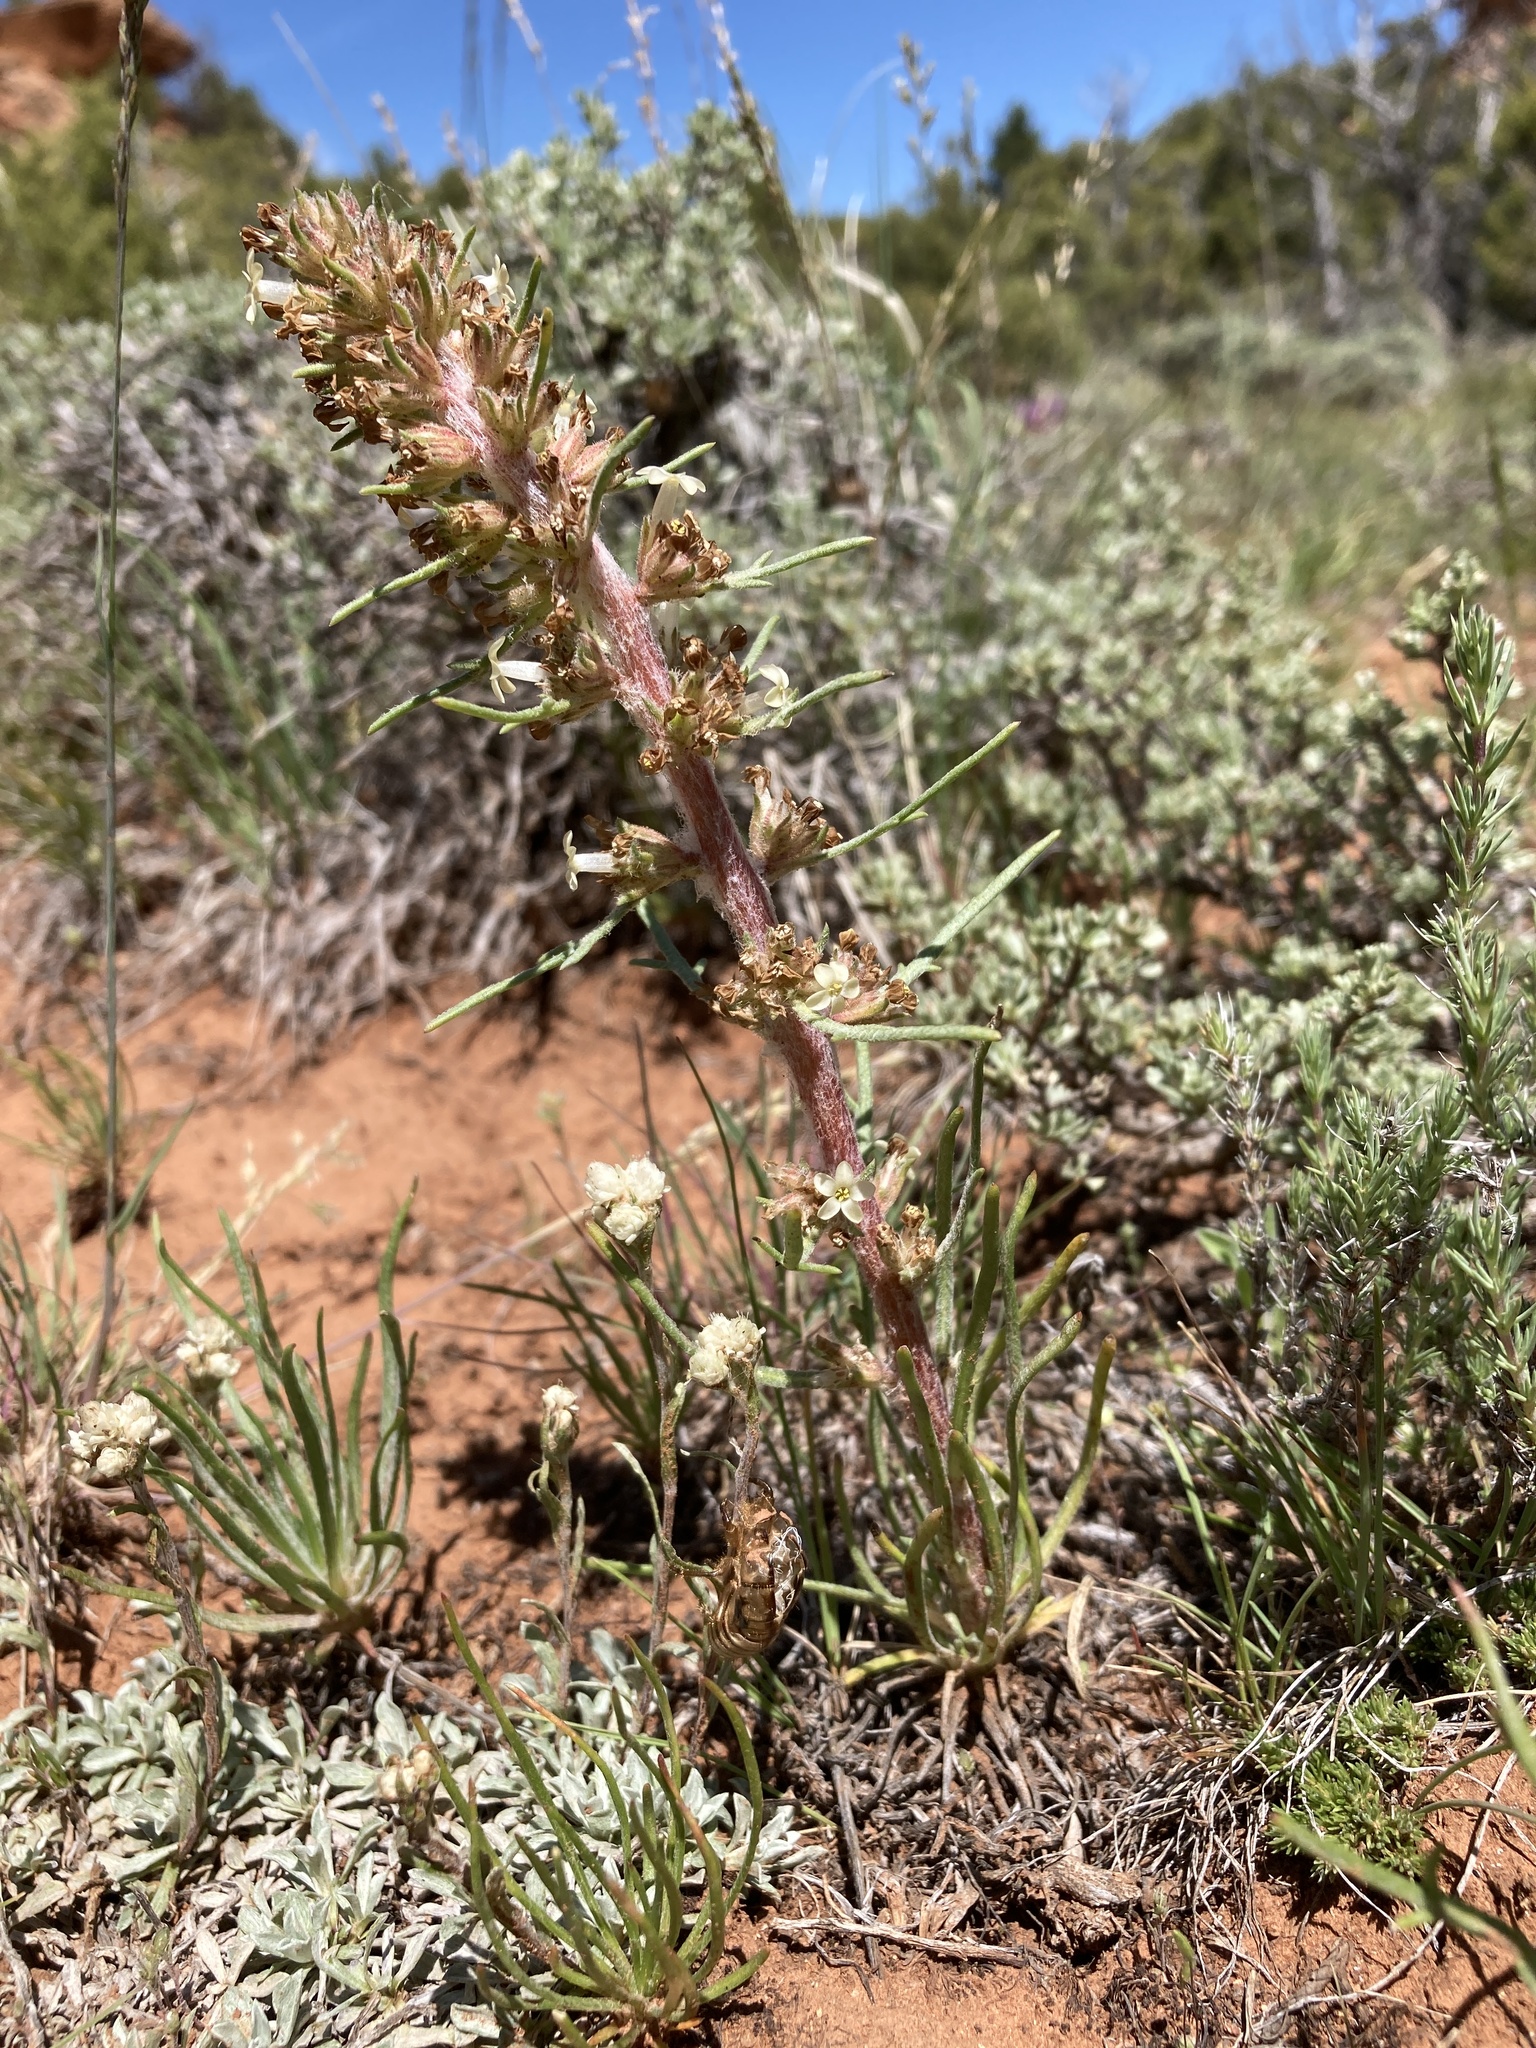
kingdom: Plantae
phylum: Tracheophyta
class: Magnoliopsida
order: Ericales
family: Polemoniaceae
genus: Ipomopsis
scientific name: Ipomopsis spicata
